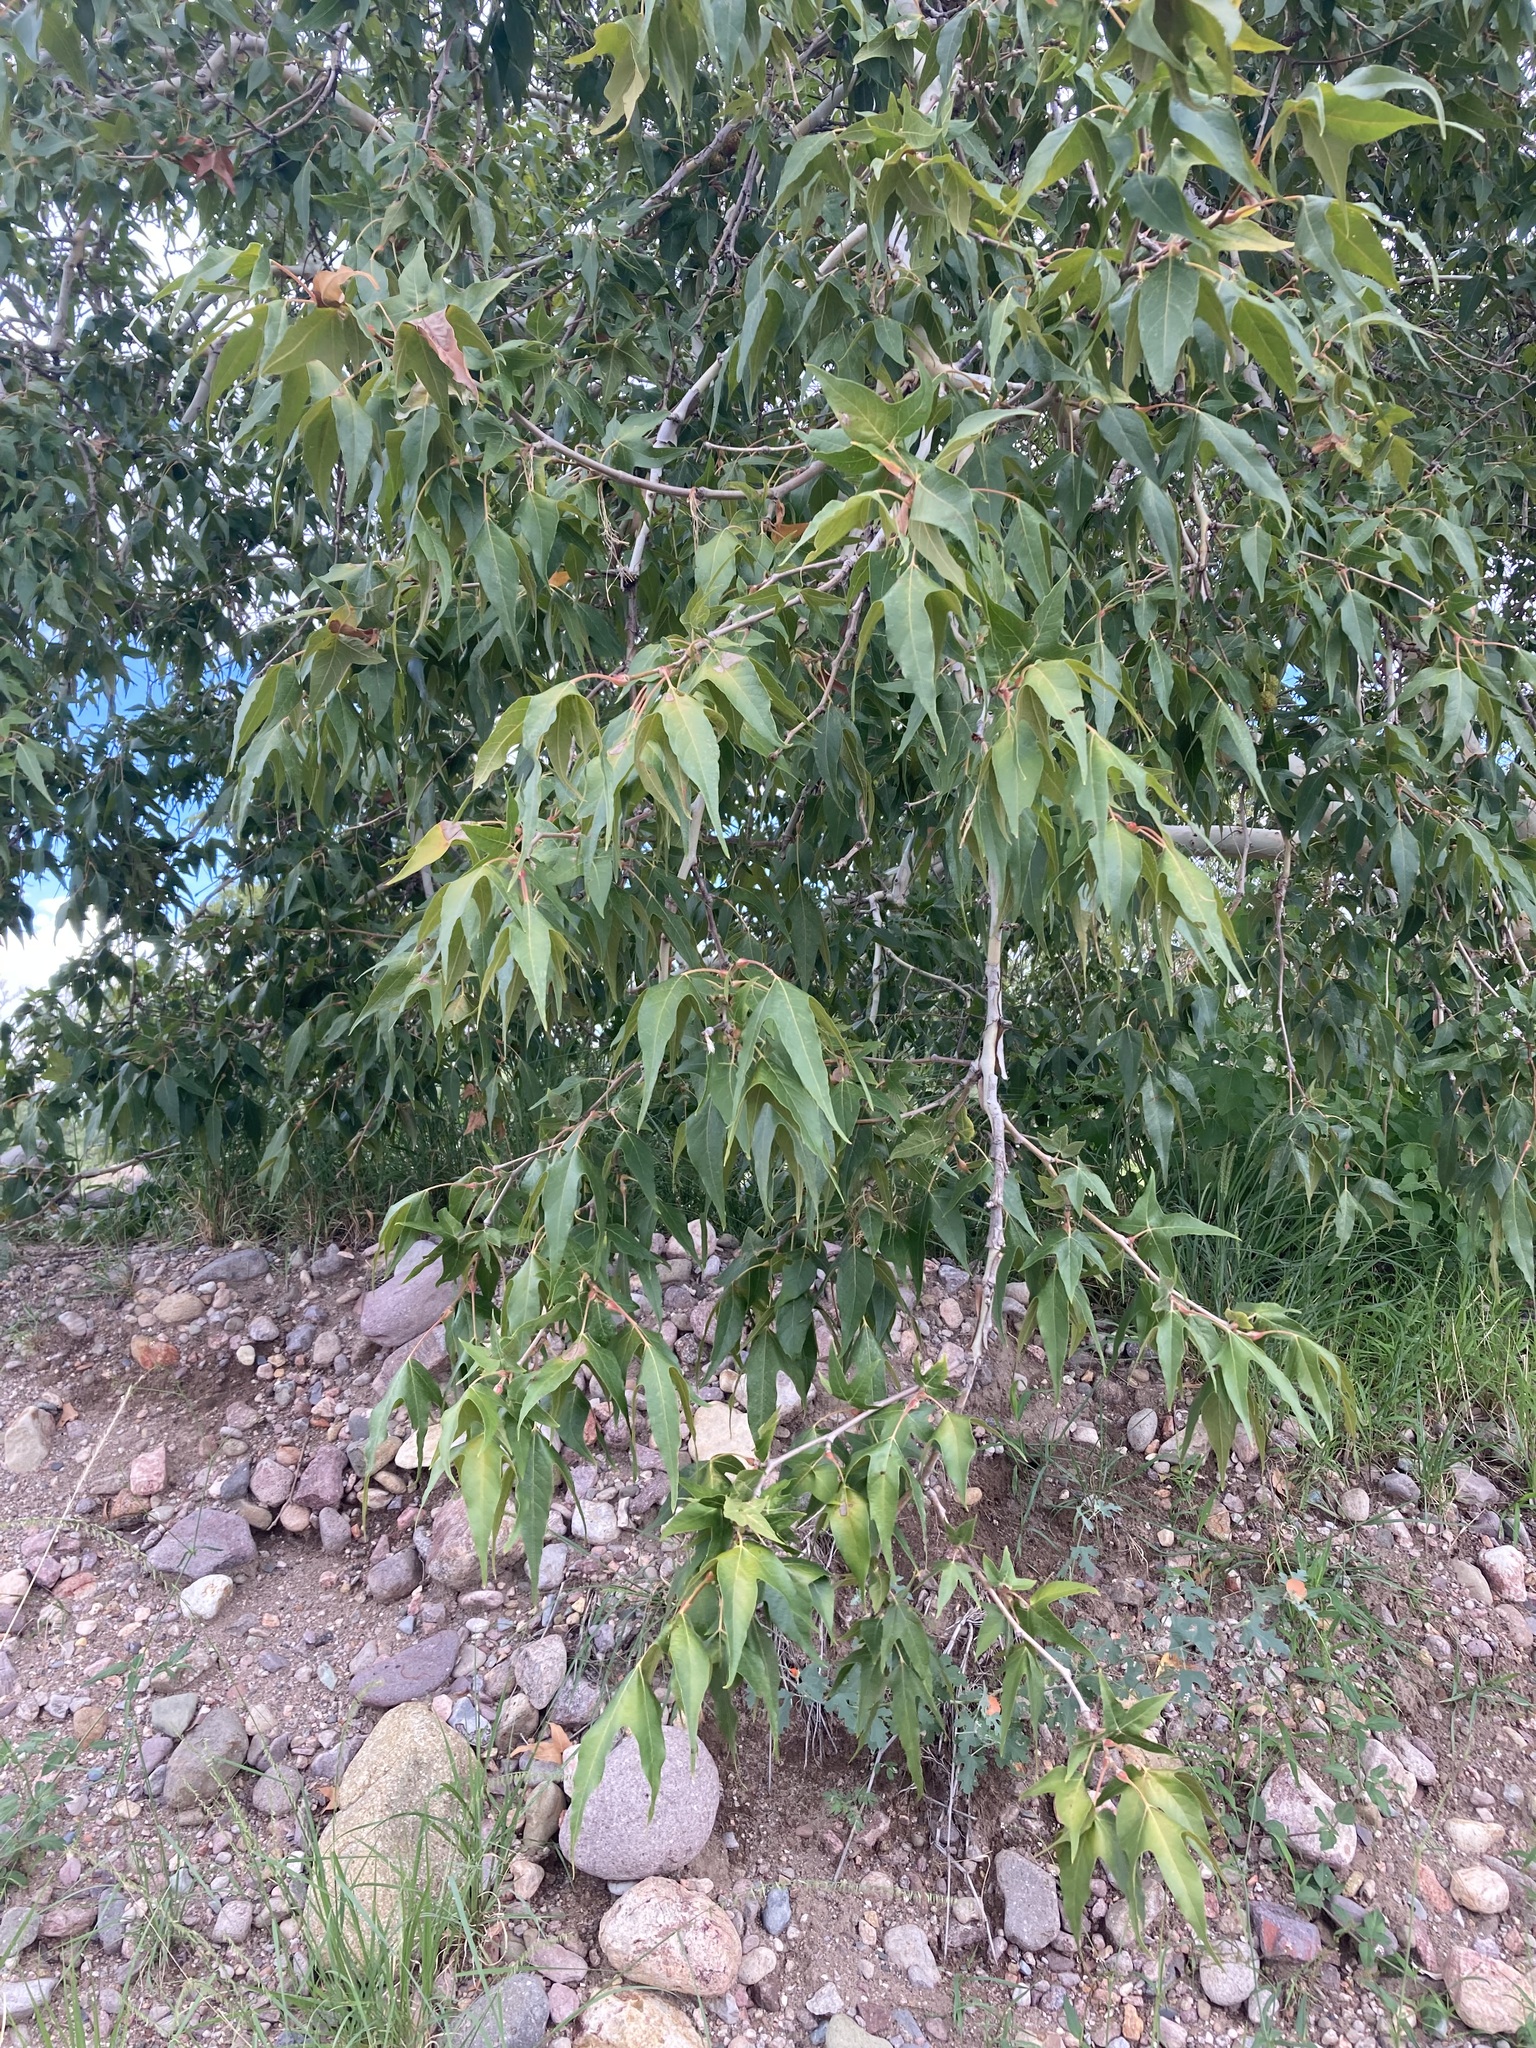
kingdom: Plantae
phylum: Tracheophyta
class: Magnoliopsida
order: Proteales
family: Platanaceae
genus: Platanus
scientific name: Platanus wrightii
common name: Arizona sycamore
